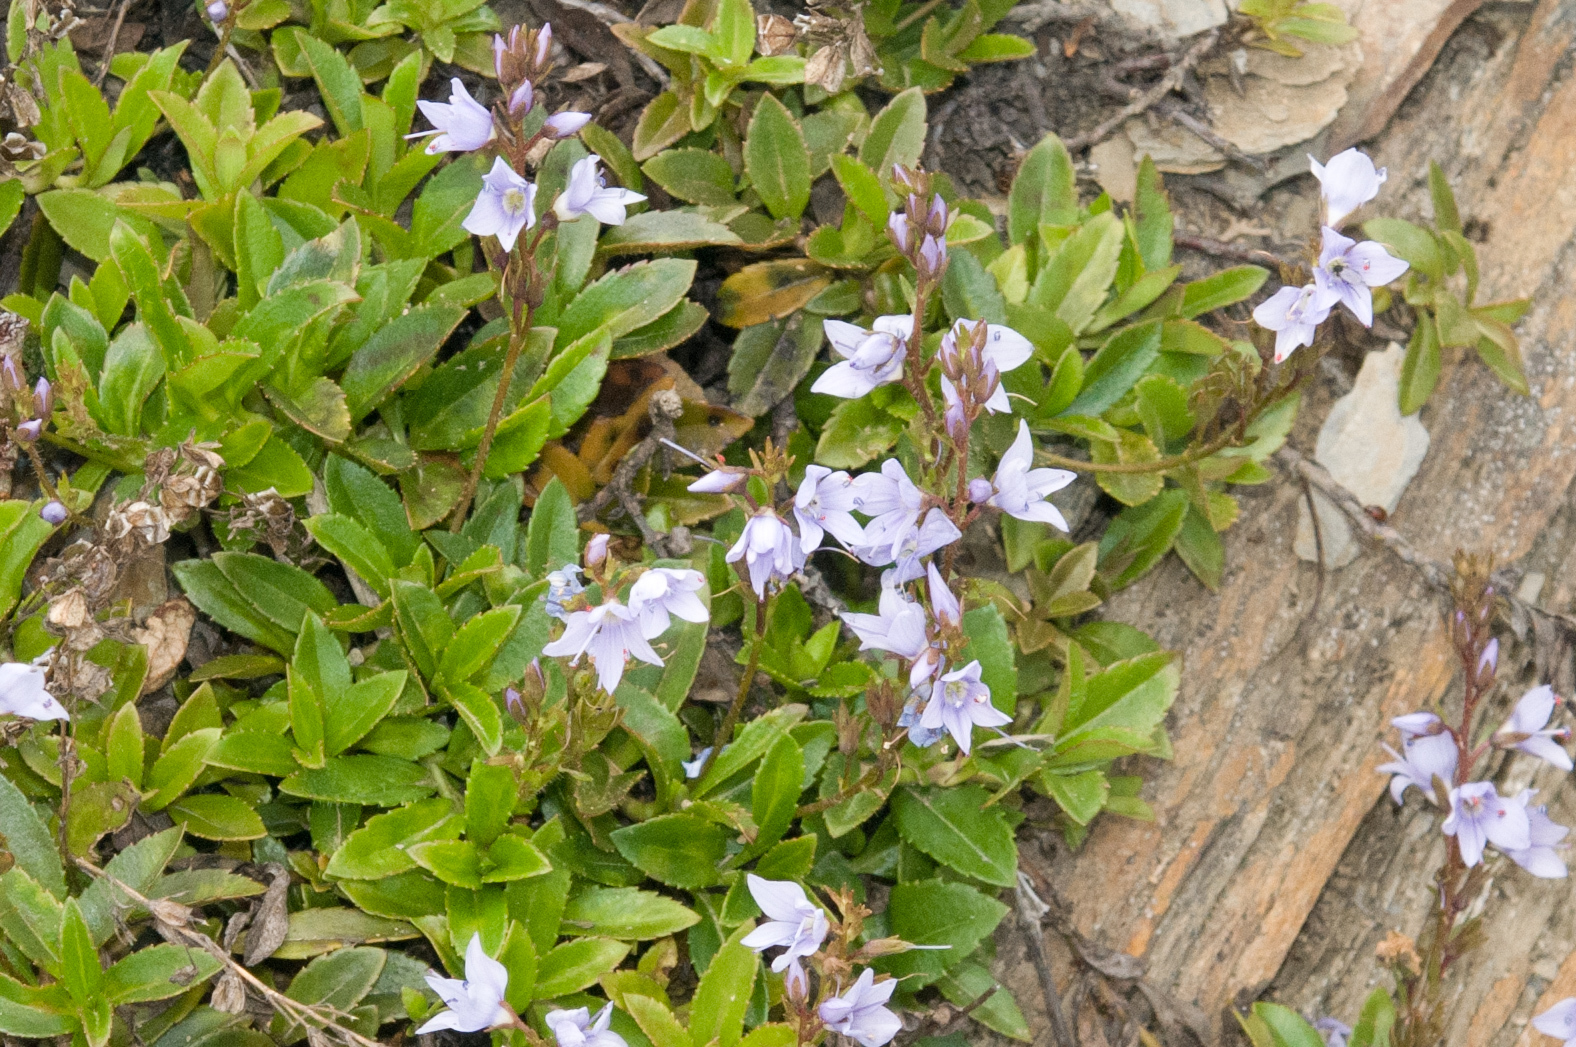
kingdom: Plantae
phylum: Tracheophyta
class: Magnoliopsida
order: Lamiales
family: Plantaginaceae
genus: Veronica
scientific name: Veronica morrisonicola
